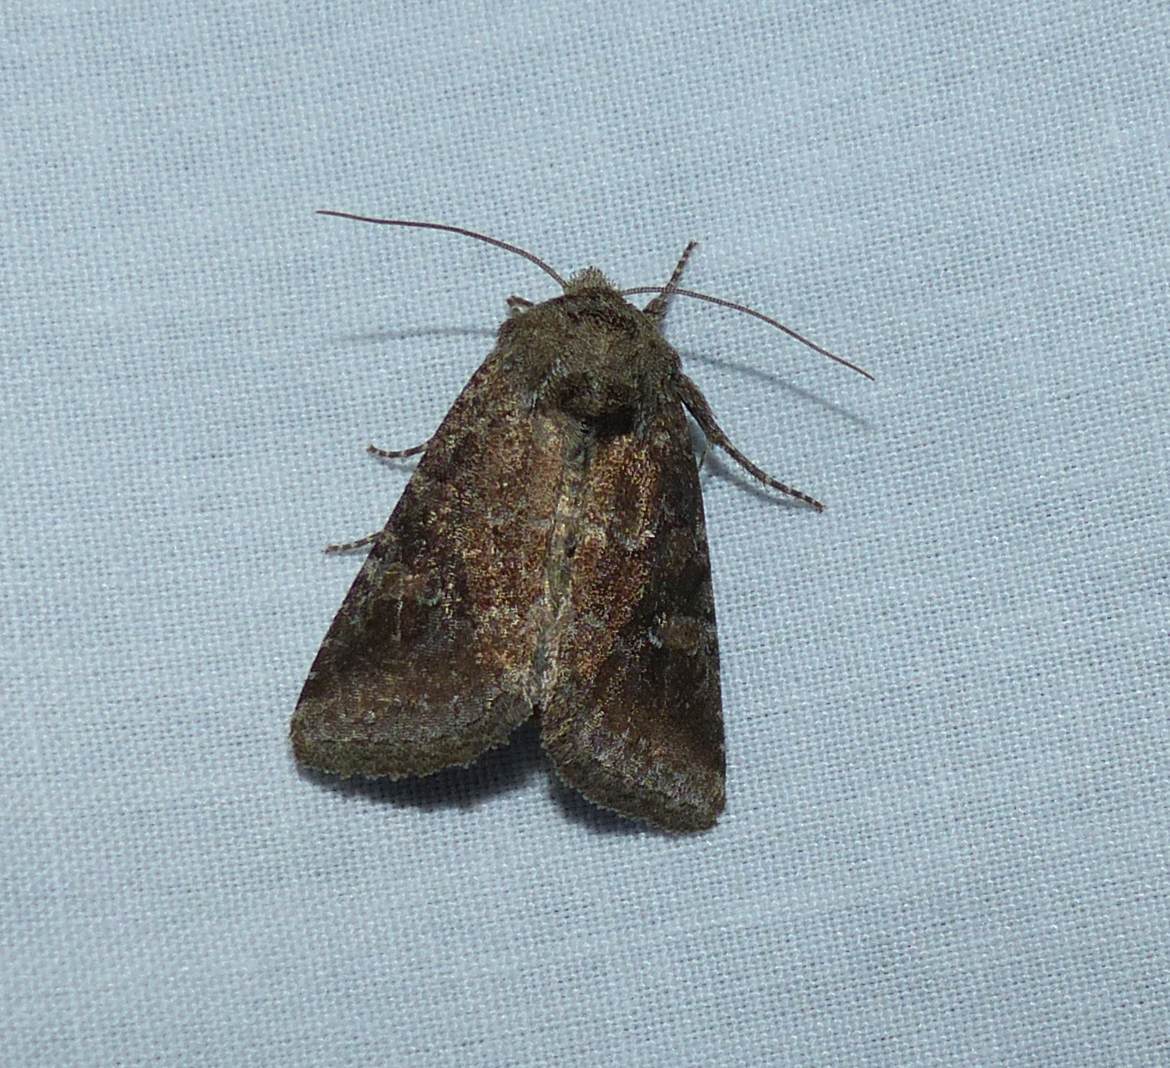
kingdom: Animalia
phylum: Arthropoda
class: Insecta
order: Lepidoptera
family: Noctuidae
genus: Lacinipolia
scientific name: Lacinipolia meditata
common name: Thinker moth
